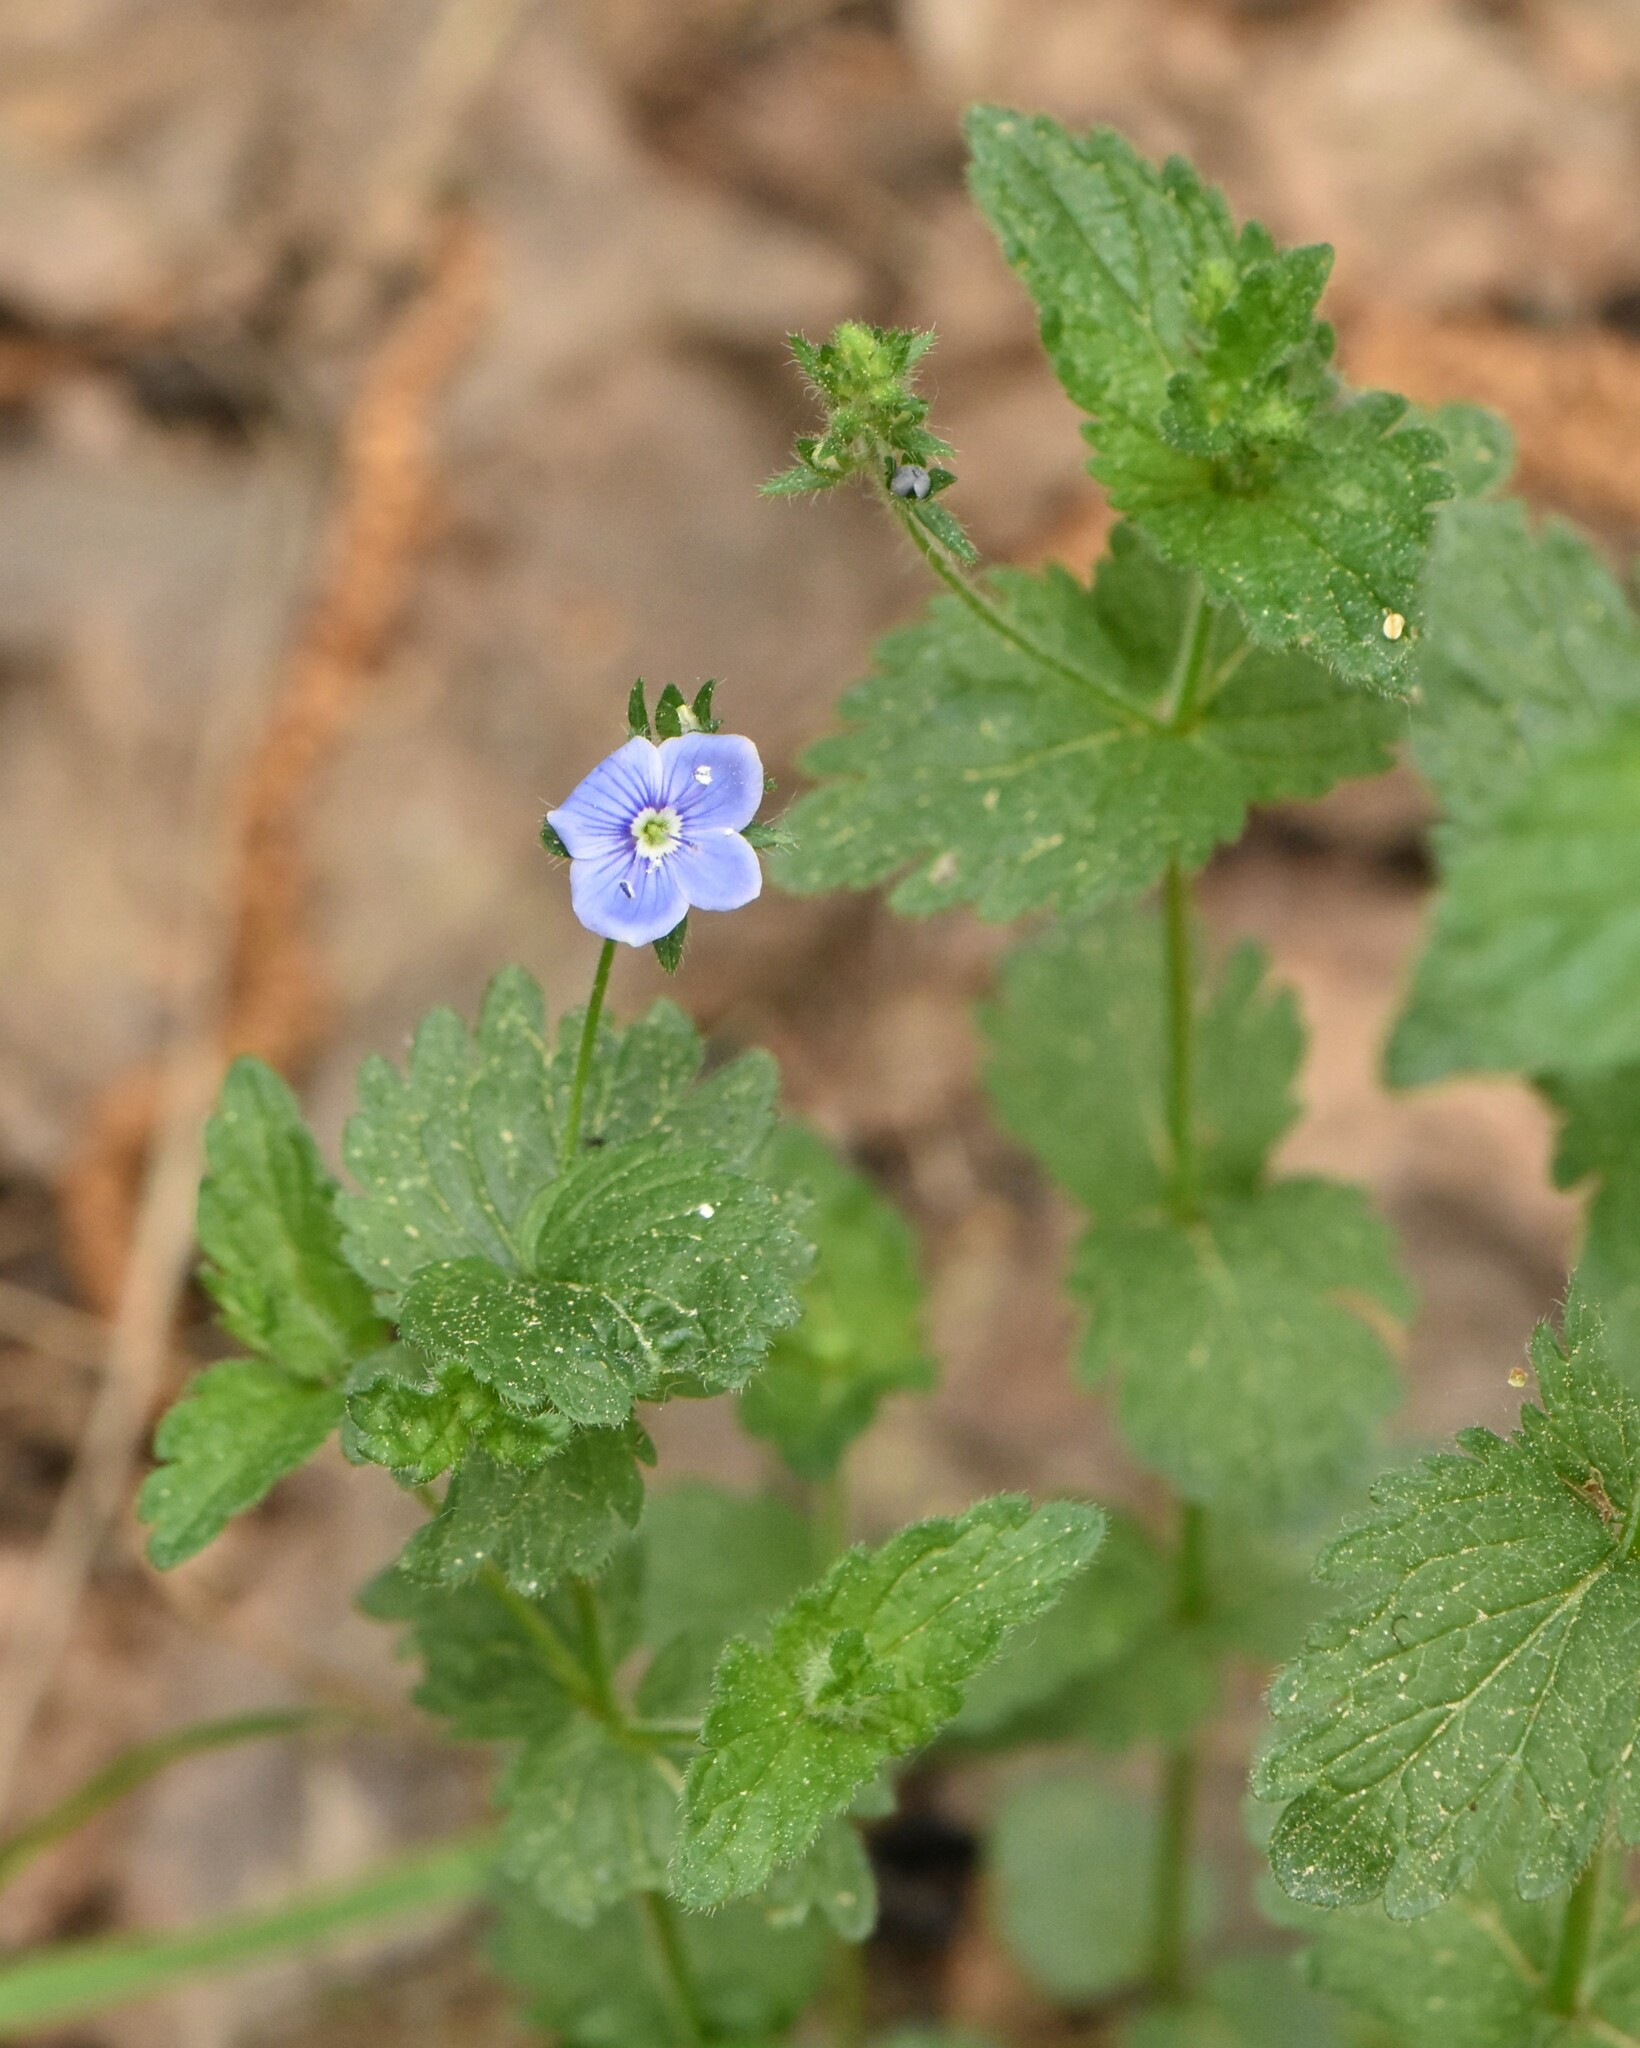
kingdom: Plantae
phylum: Tracheophyta
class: Magnoliopsida
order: Lamiales
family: Plantaginaceae
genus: Veronica
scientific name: Veronica chamaedrys
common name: Germander speedwell
